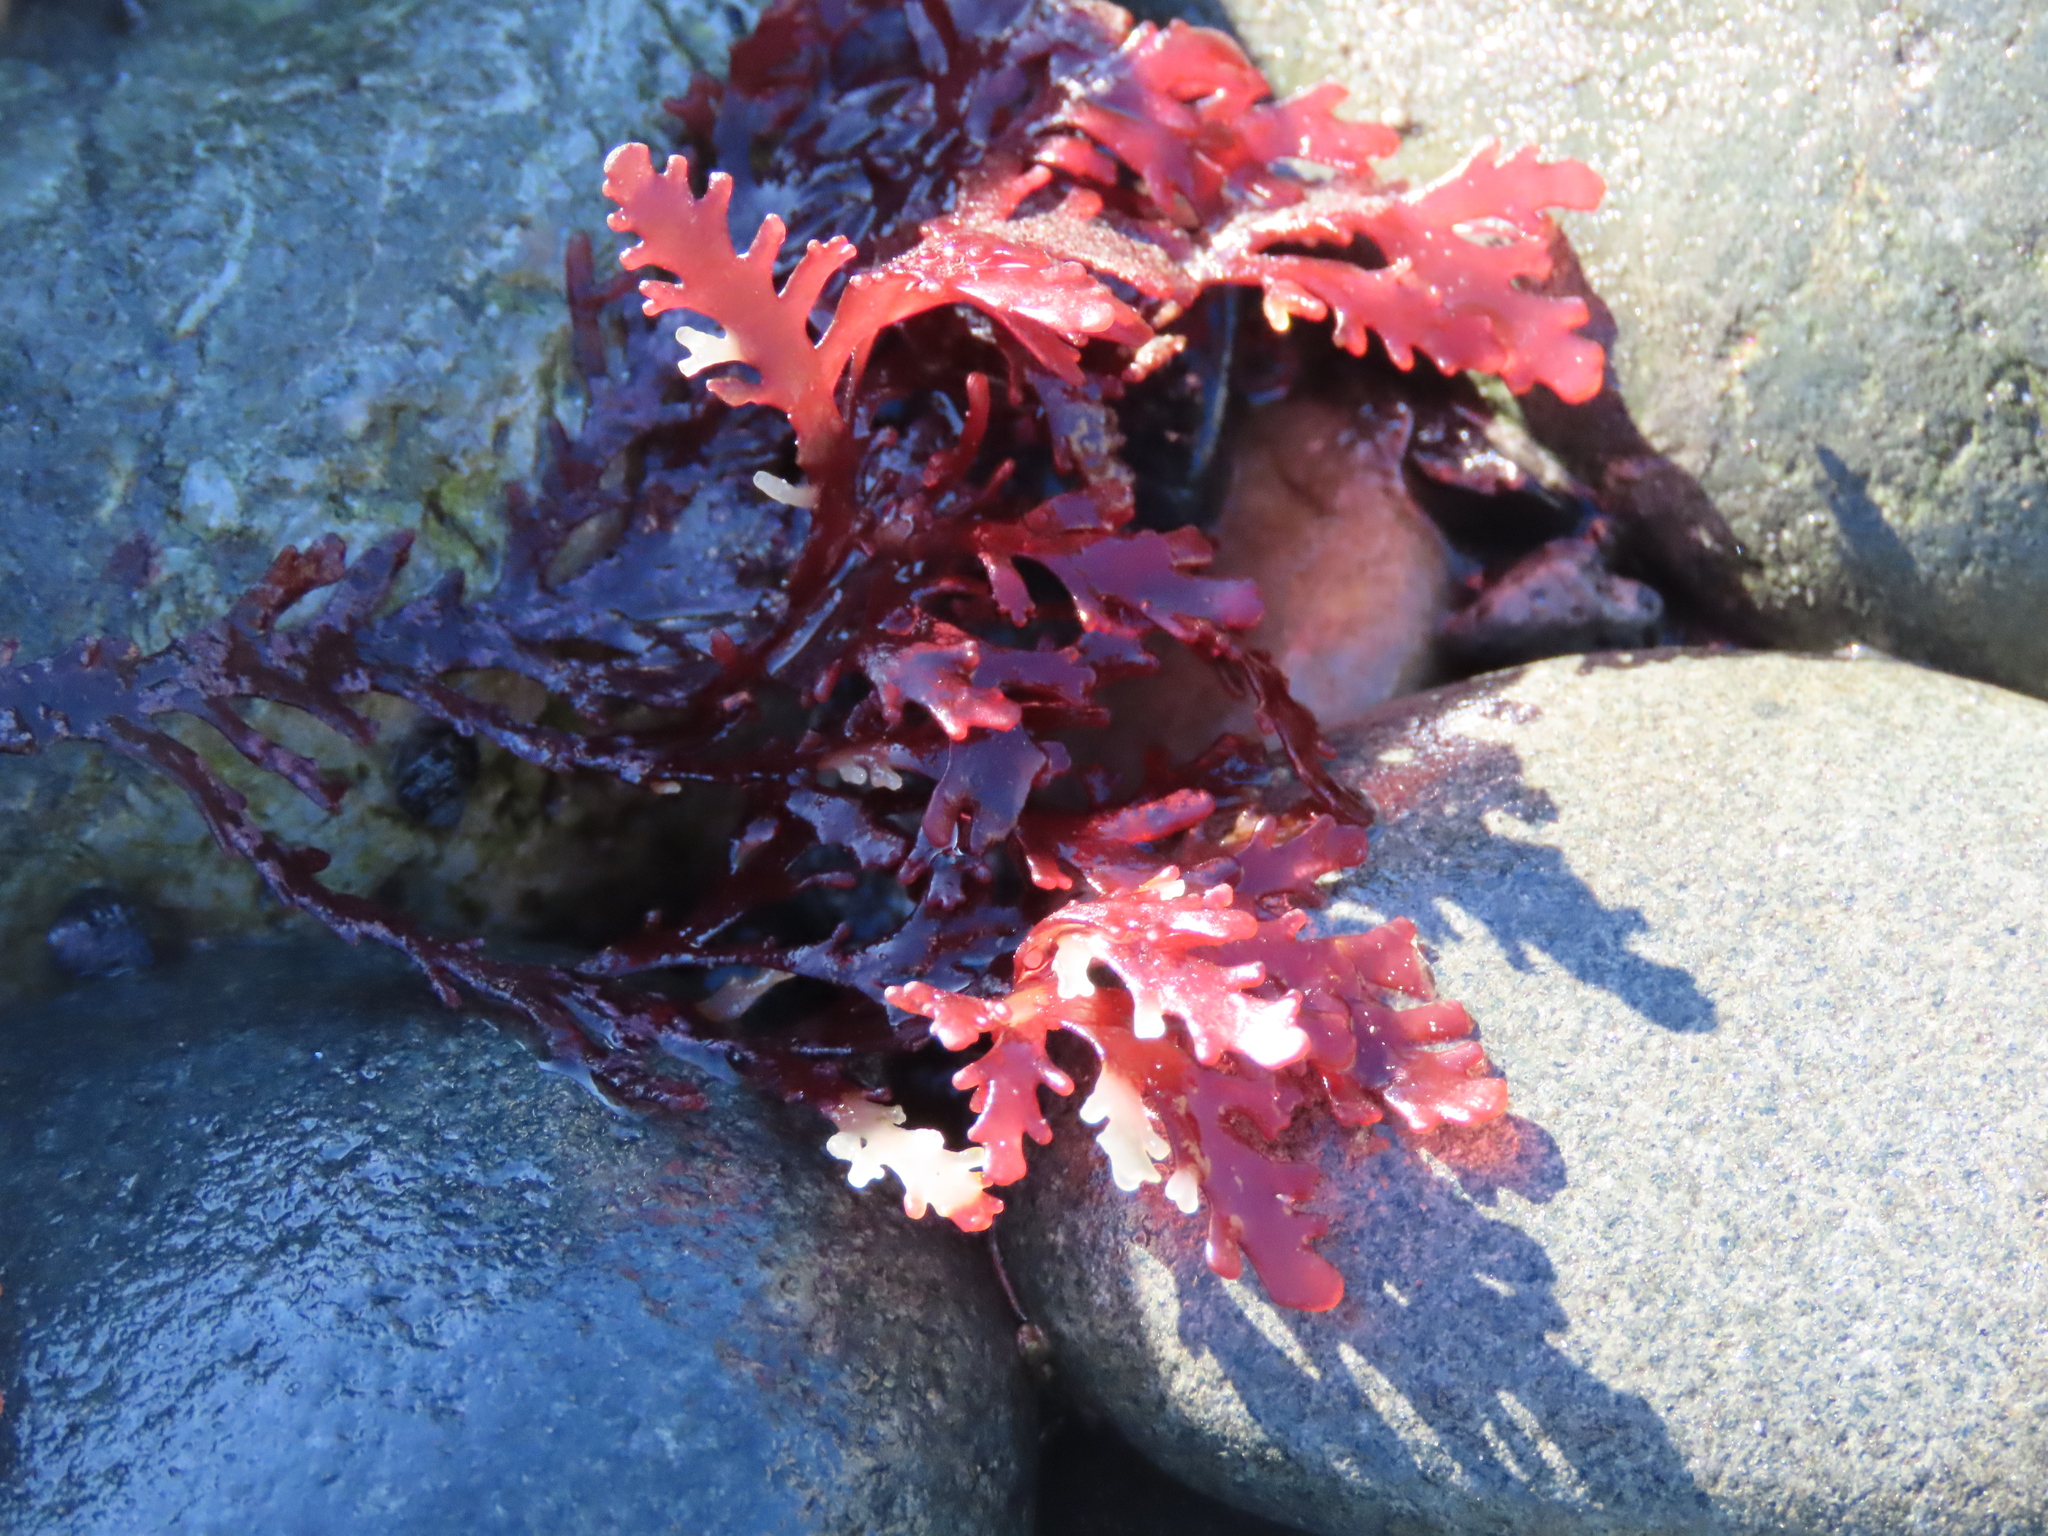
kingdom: Plantae
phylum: Rhodophyta
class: Florideophyceae
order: Ceramiales
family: Rhodomelaceae
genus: Osmundea
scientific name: Osmundea spectabilis
